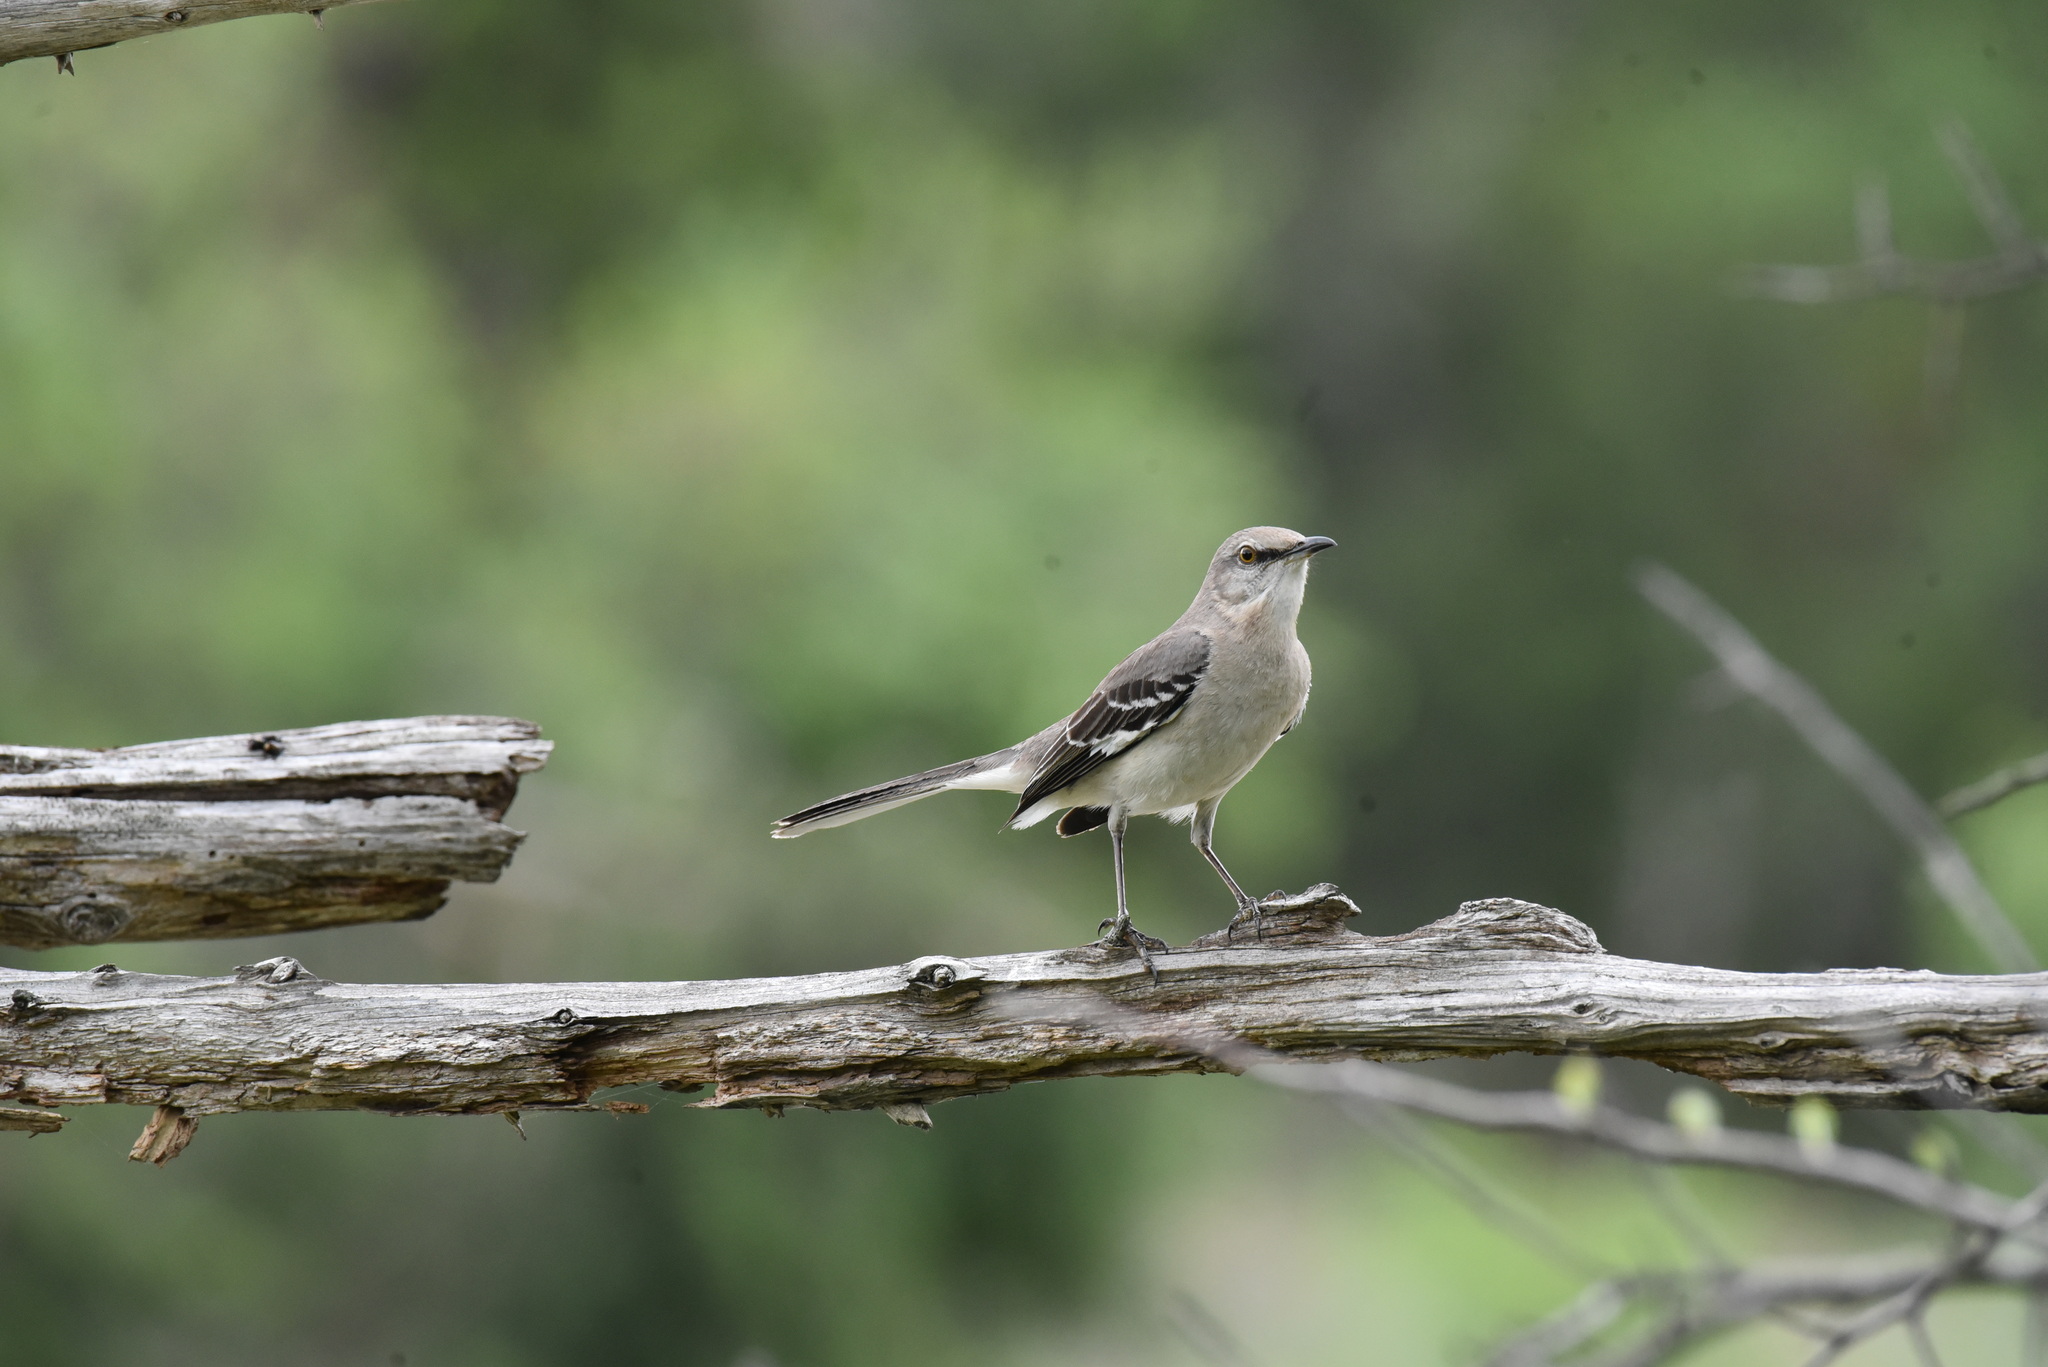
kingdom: Animalia
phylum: Chordata
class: Aves
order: Passeriformes
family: Mimidae
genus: Mimus
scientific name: Mimus polyglottos
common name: Northern mockingbird
